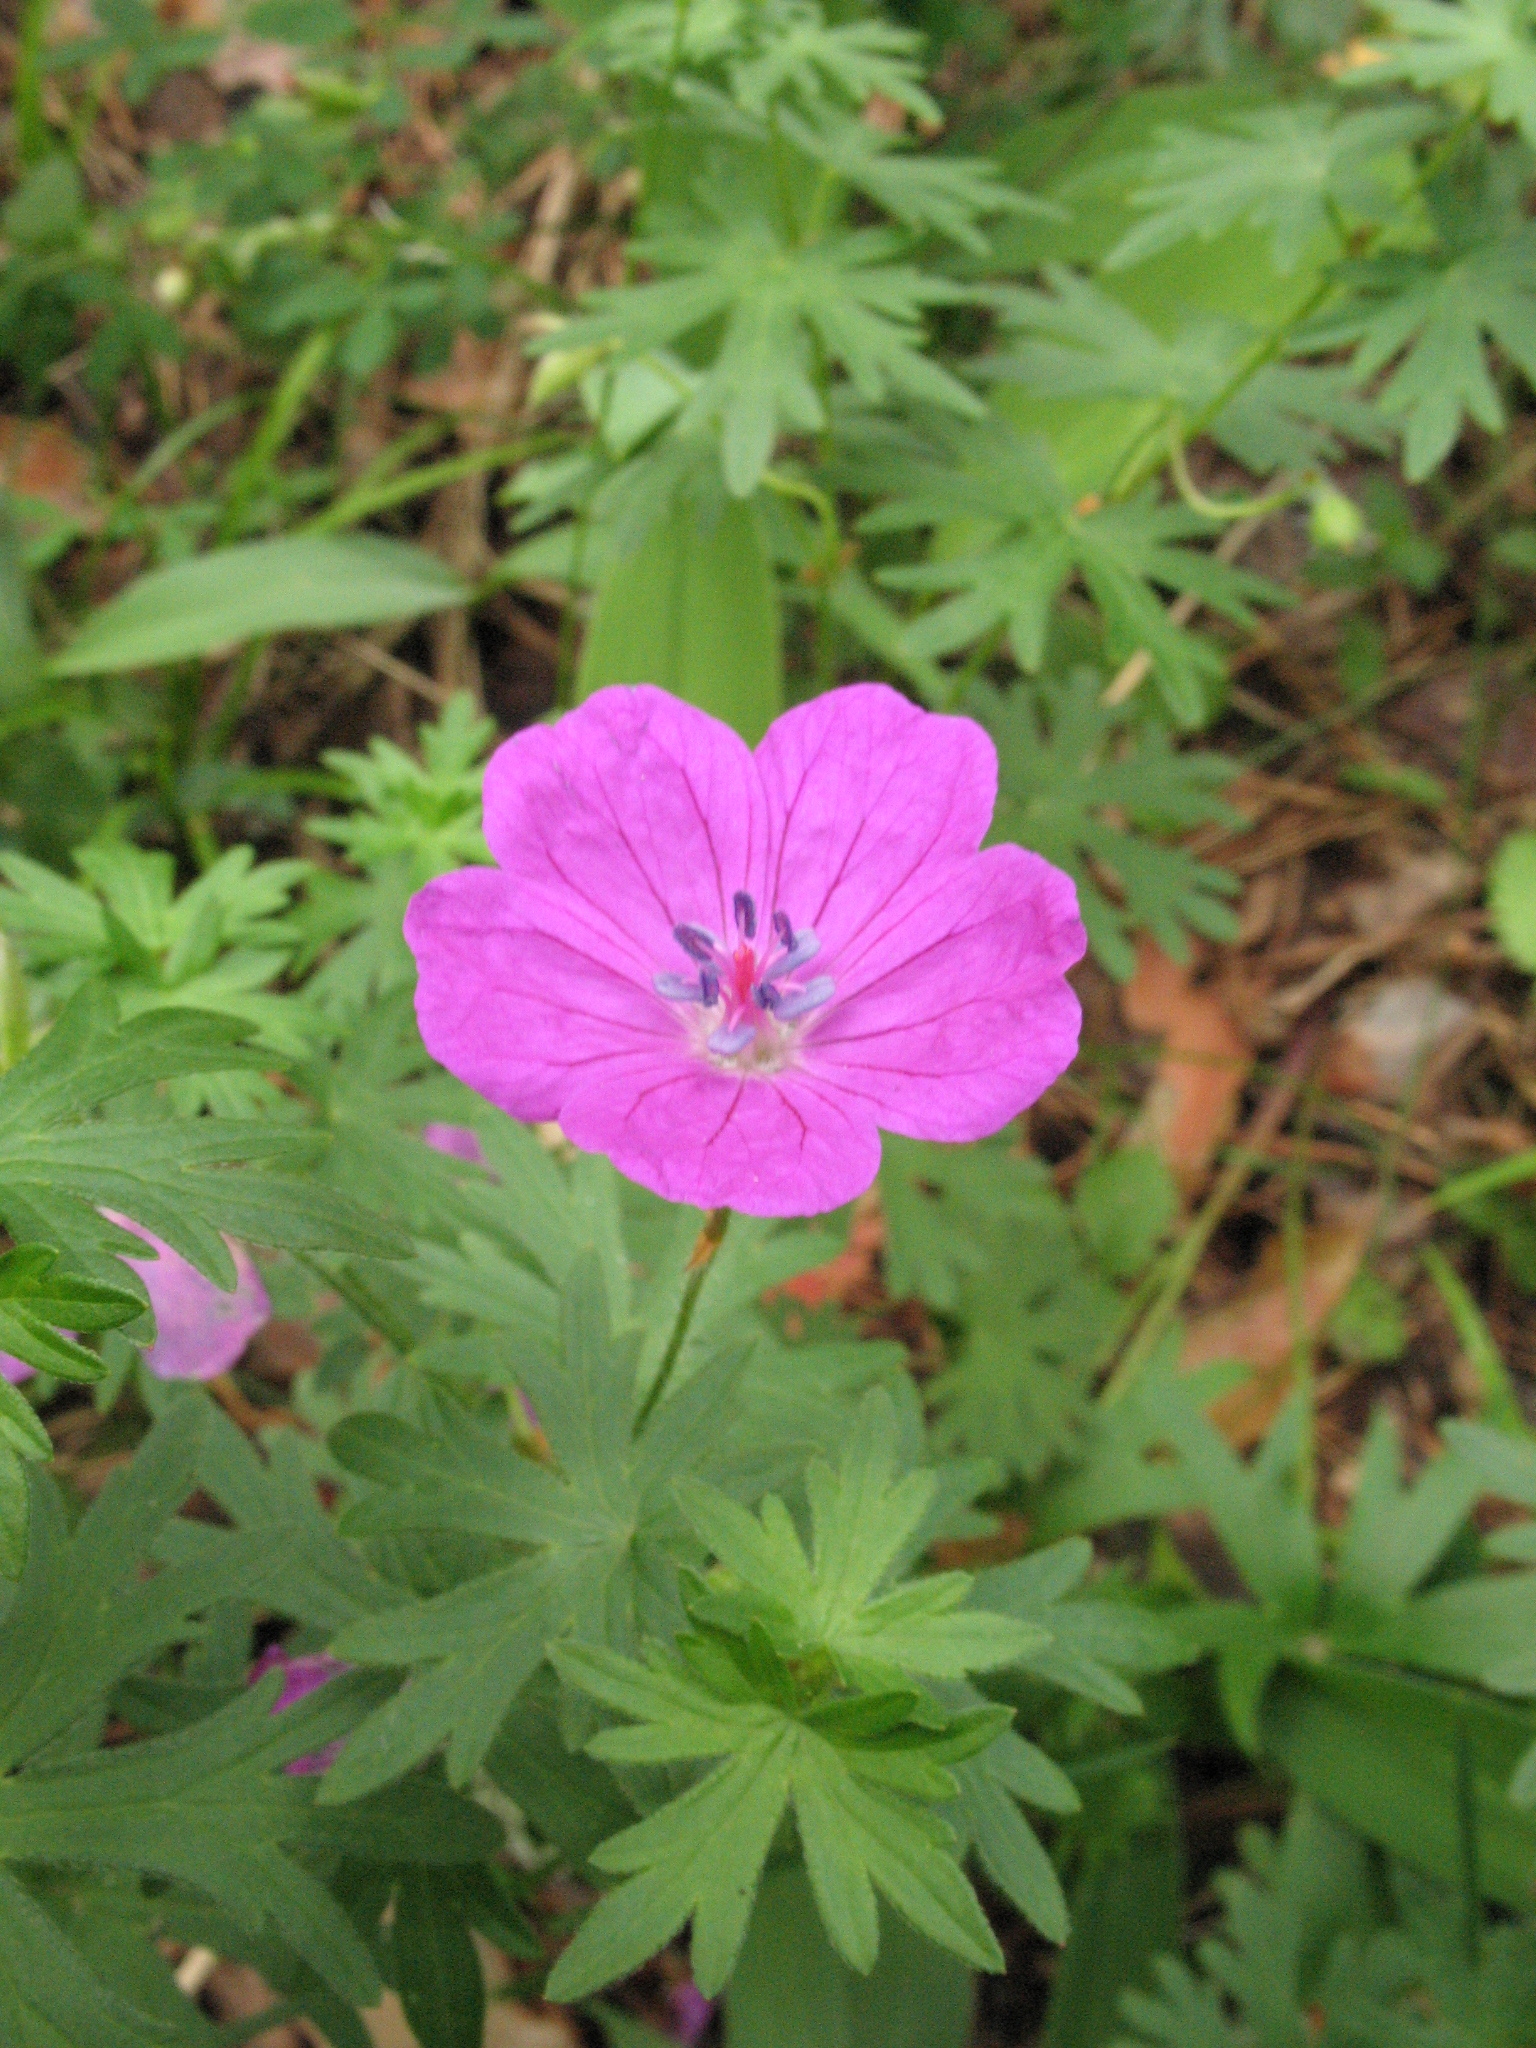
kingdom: Plantae
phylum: Tracheophyta
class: Magnoliopsida
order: Geraniales
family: Geraniaceae
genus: Geranium
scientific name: Geranium sanguineum
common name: Bloody crane's-bill
